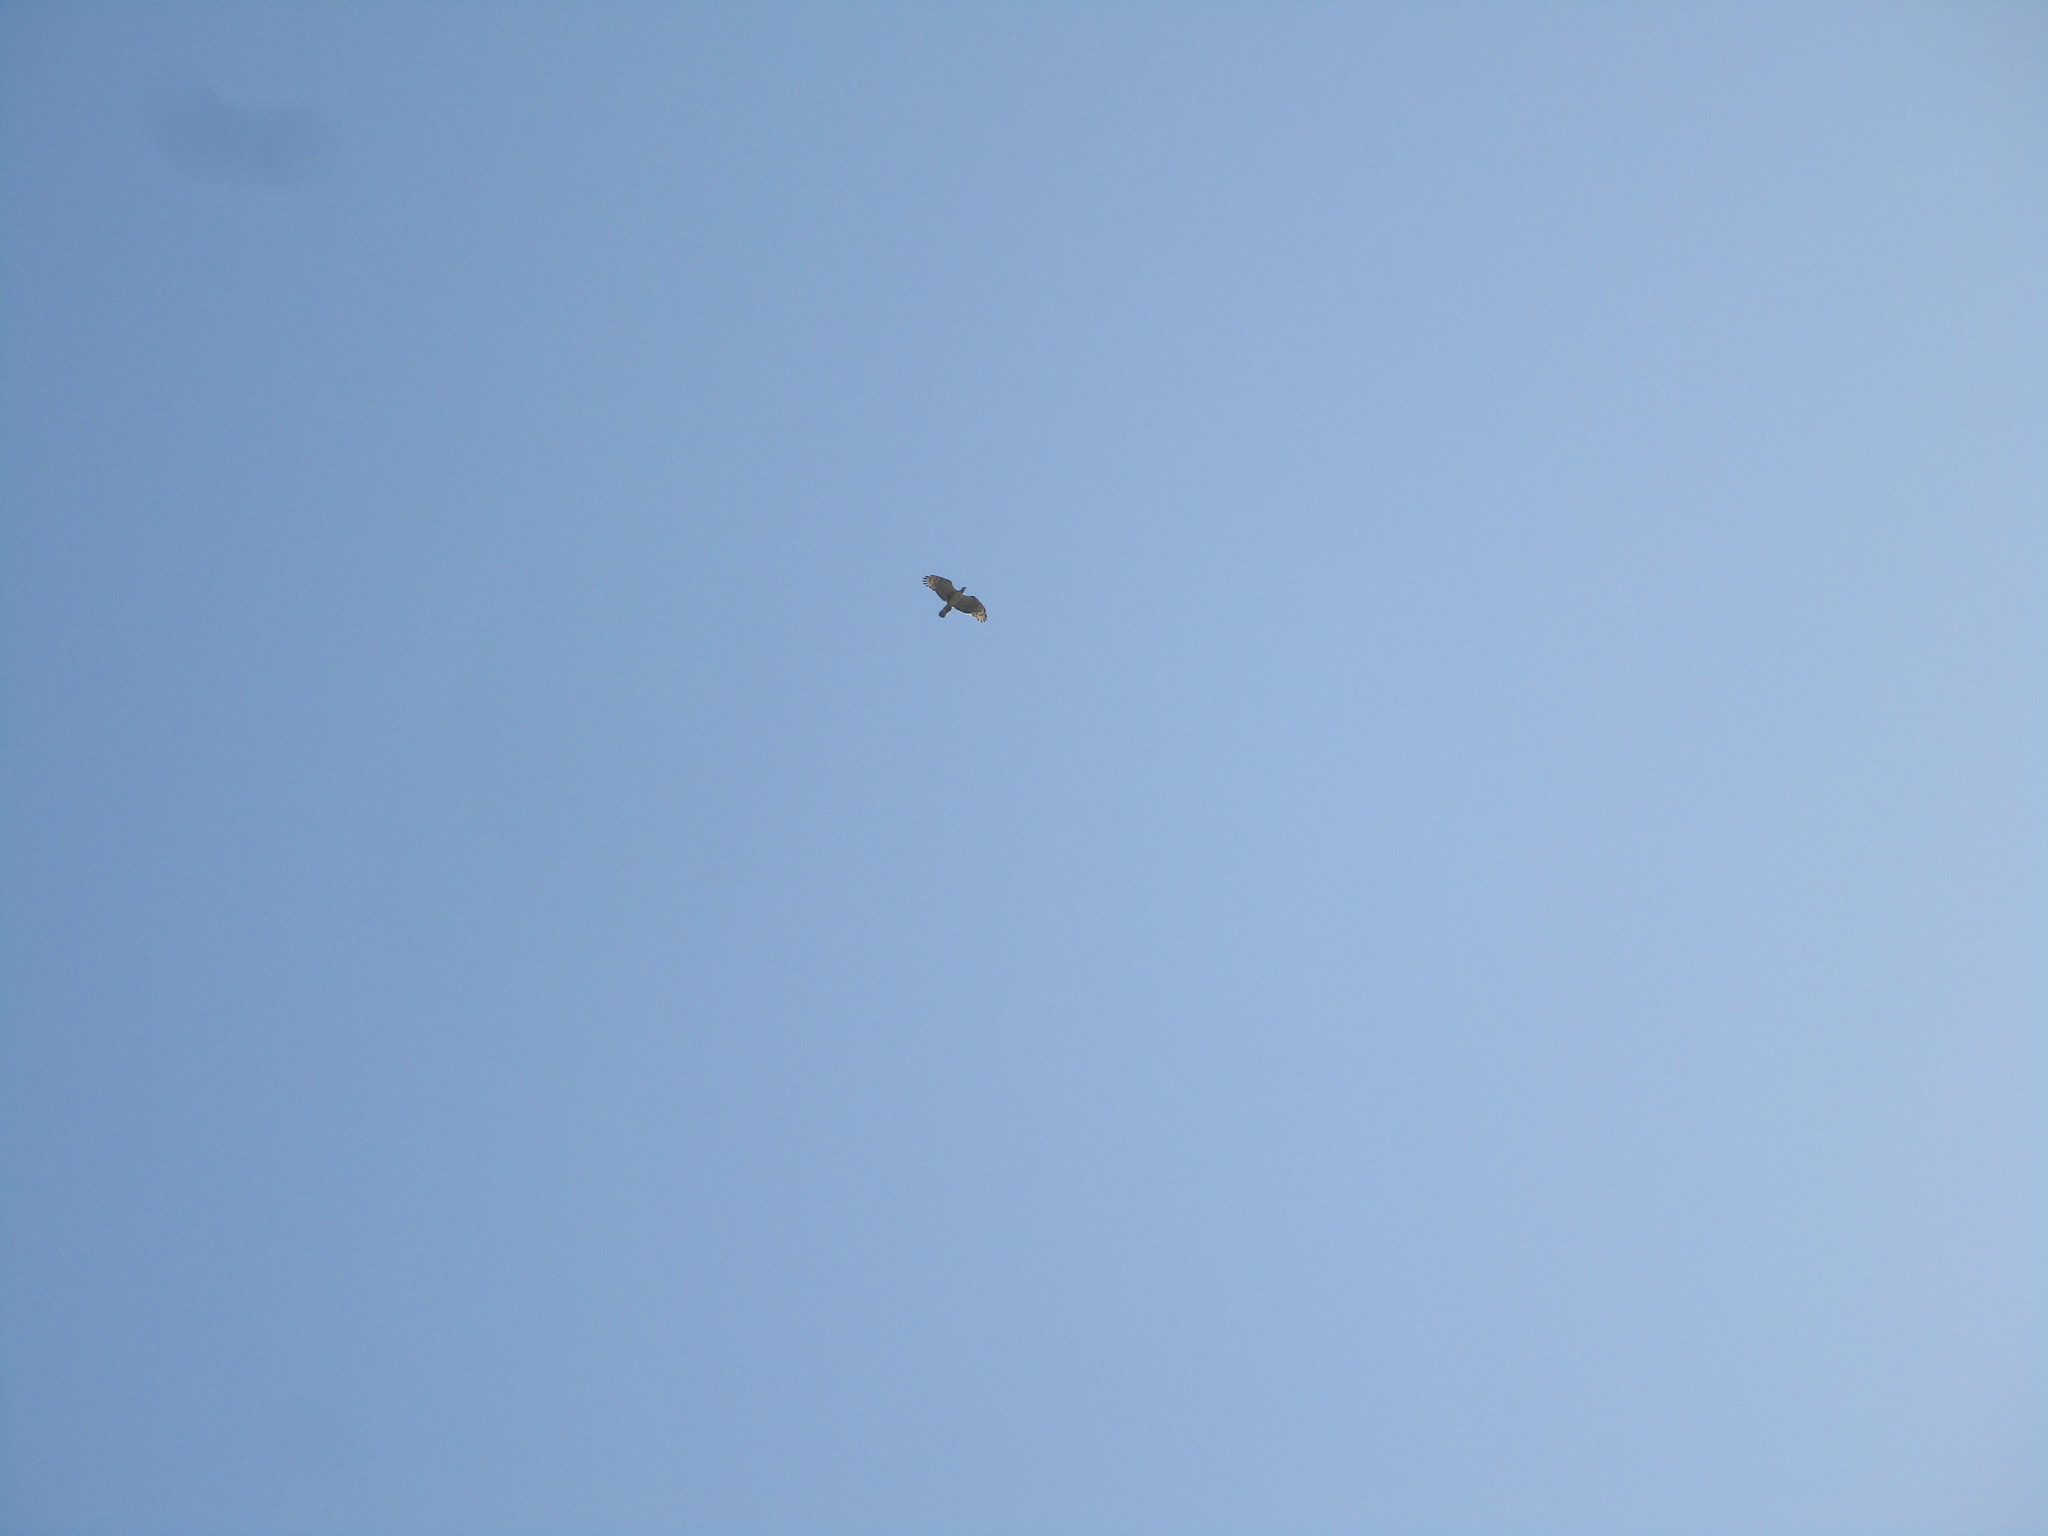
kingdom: Animalia
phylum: Chordata
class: Aves
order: Accipitriformes
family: Accipitridae
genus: Pernis
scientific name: Pernis ptilorhynchus
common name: Crested honey buzzard
